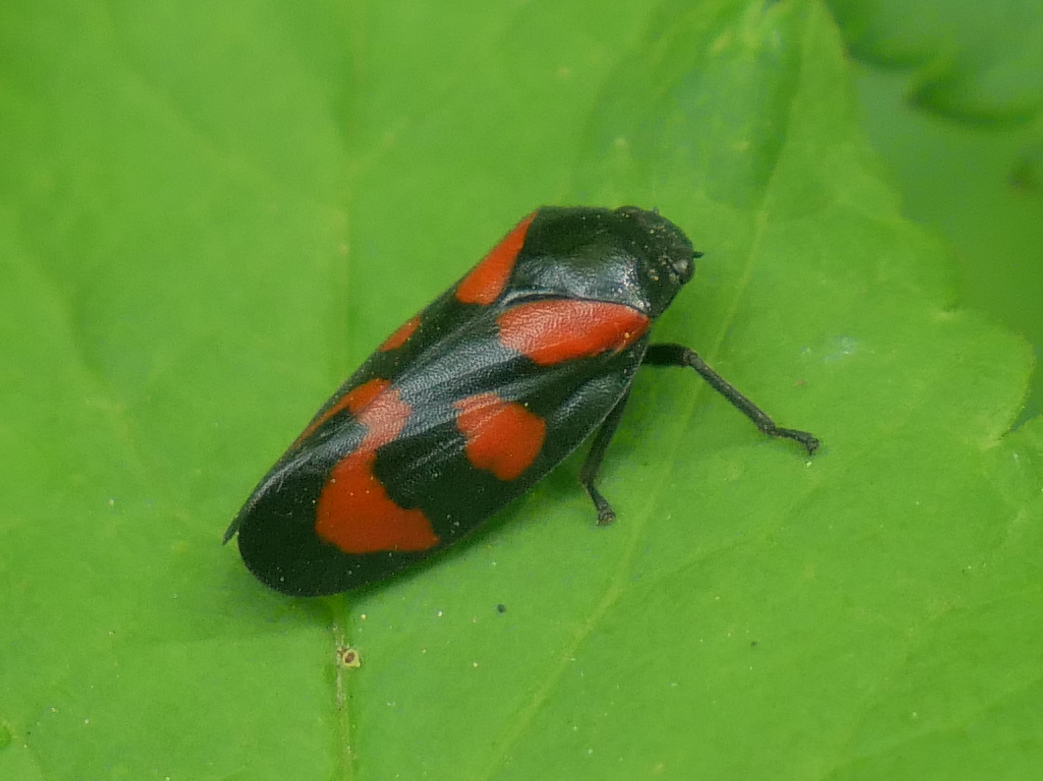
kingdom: Animalia
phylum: Arthropoda
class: Insecta
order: Hemiptera
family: Cercopidae
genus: Cercopis
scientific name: Cercopis vulnerata
